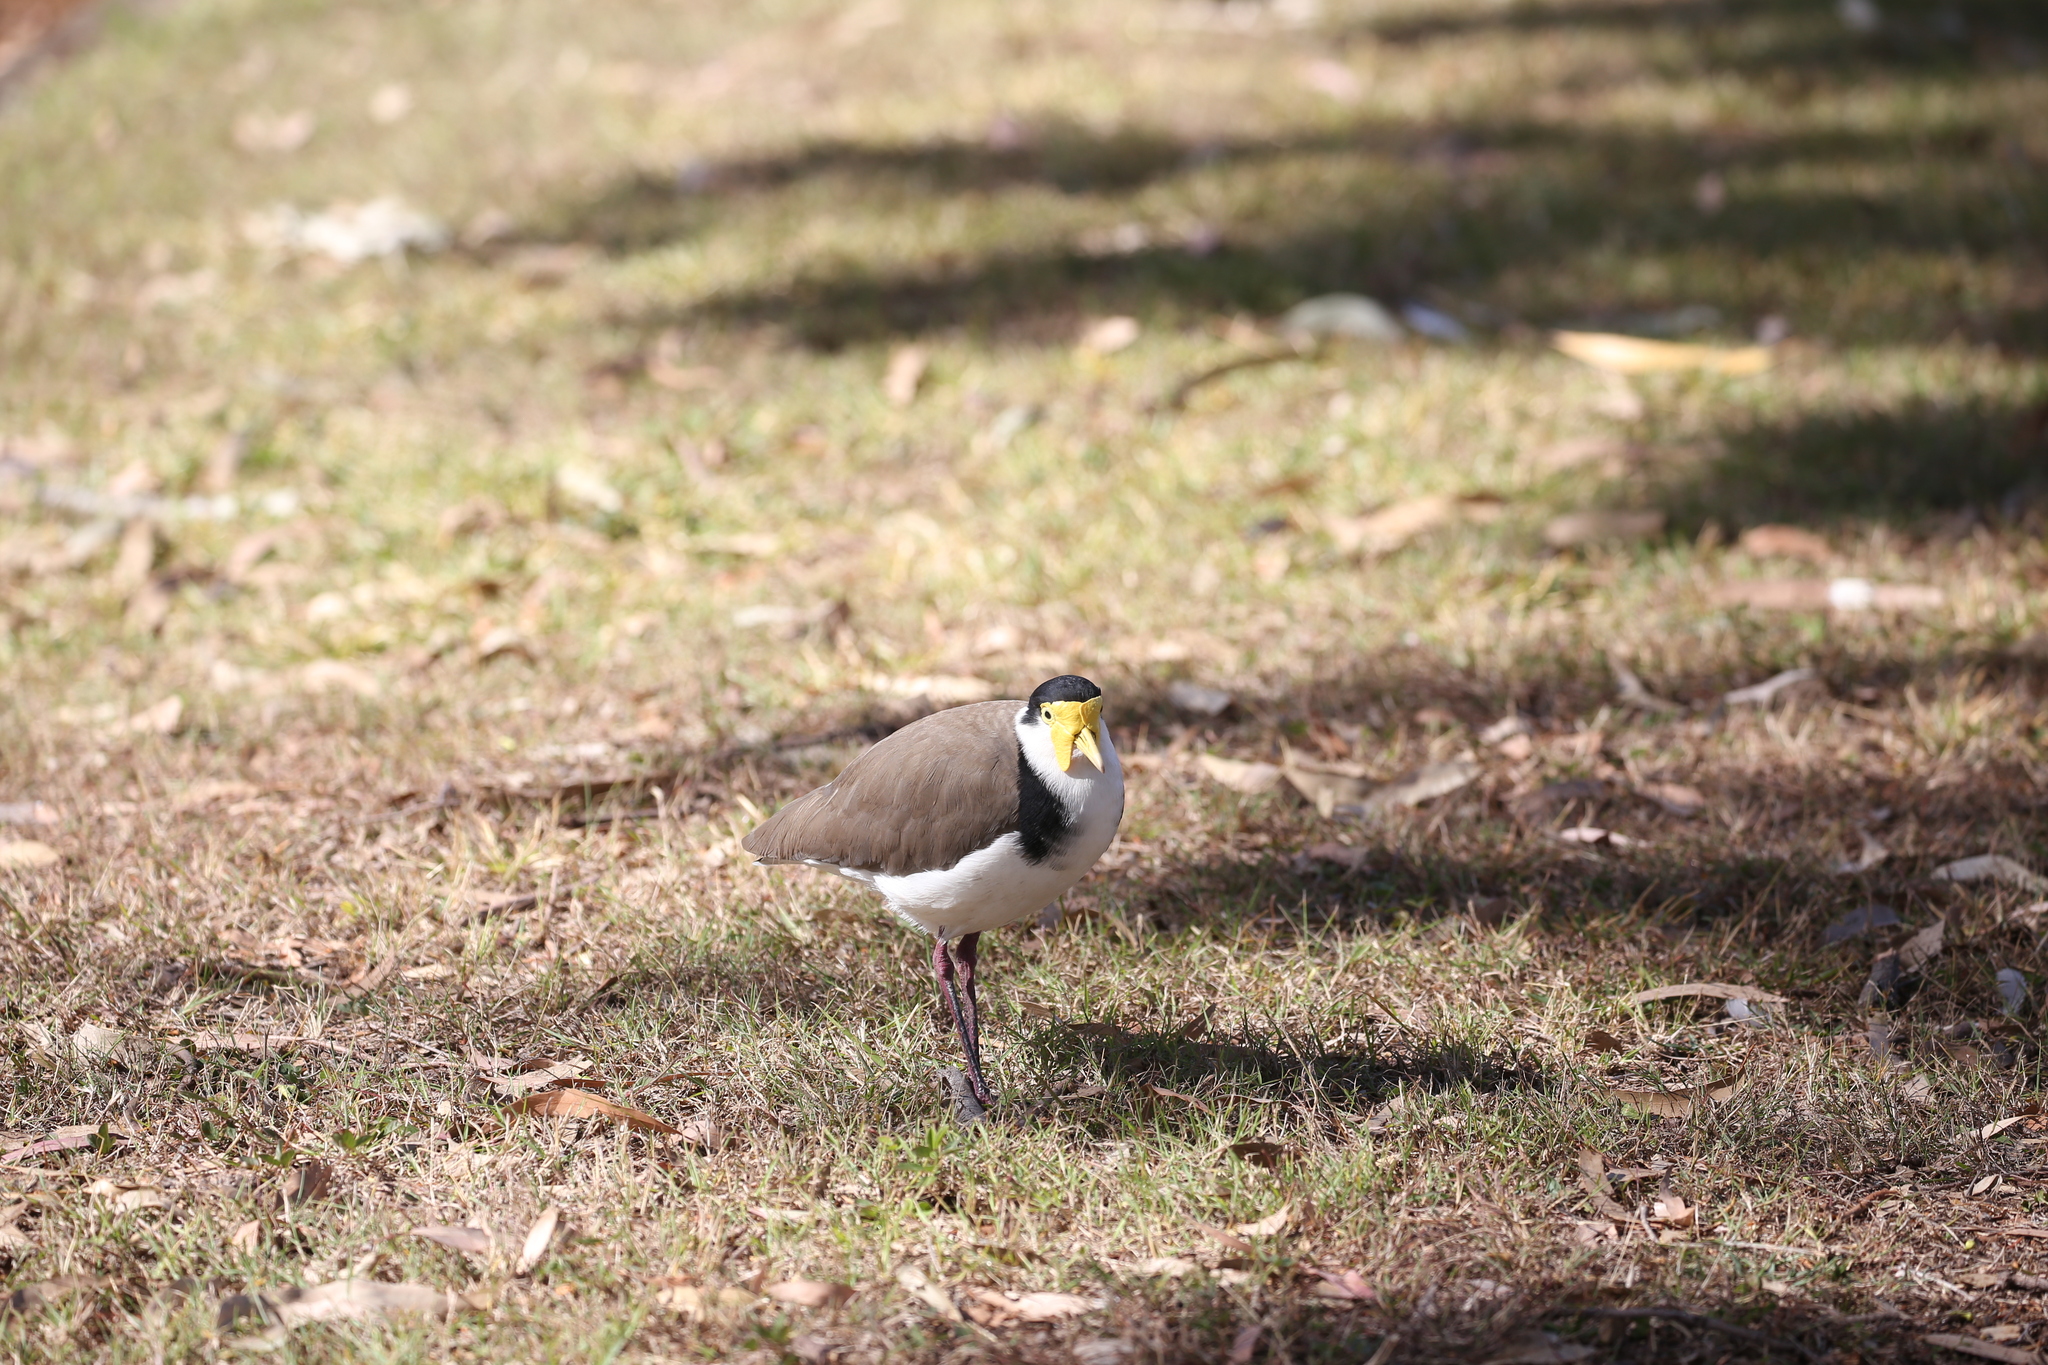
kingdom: Animalia
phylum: Chordata
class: Aves
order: Charadriiformes
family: Charadriidae
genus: Vanellus
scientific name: Vanellus miles
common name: Masked lapwing
